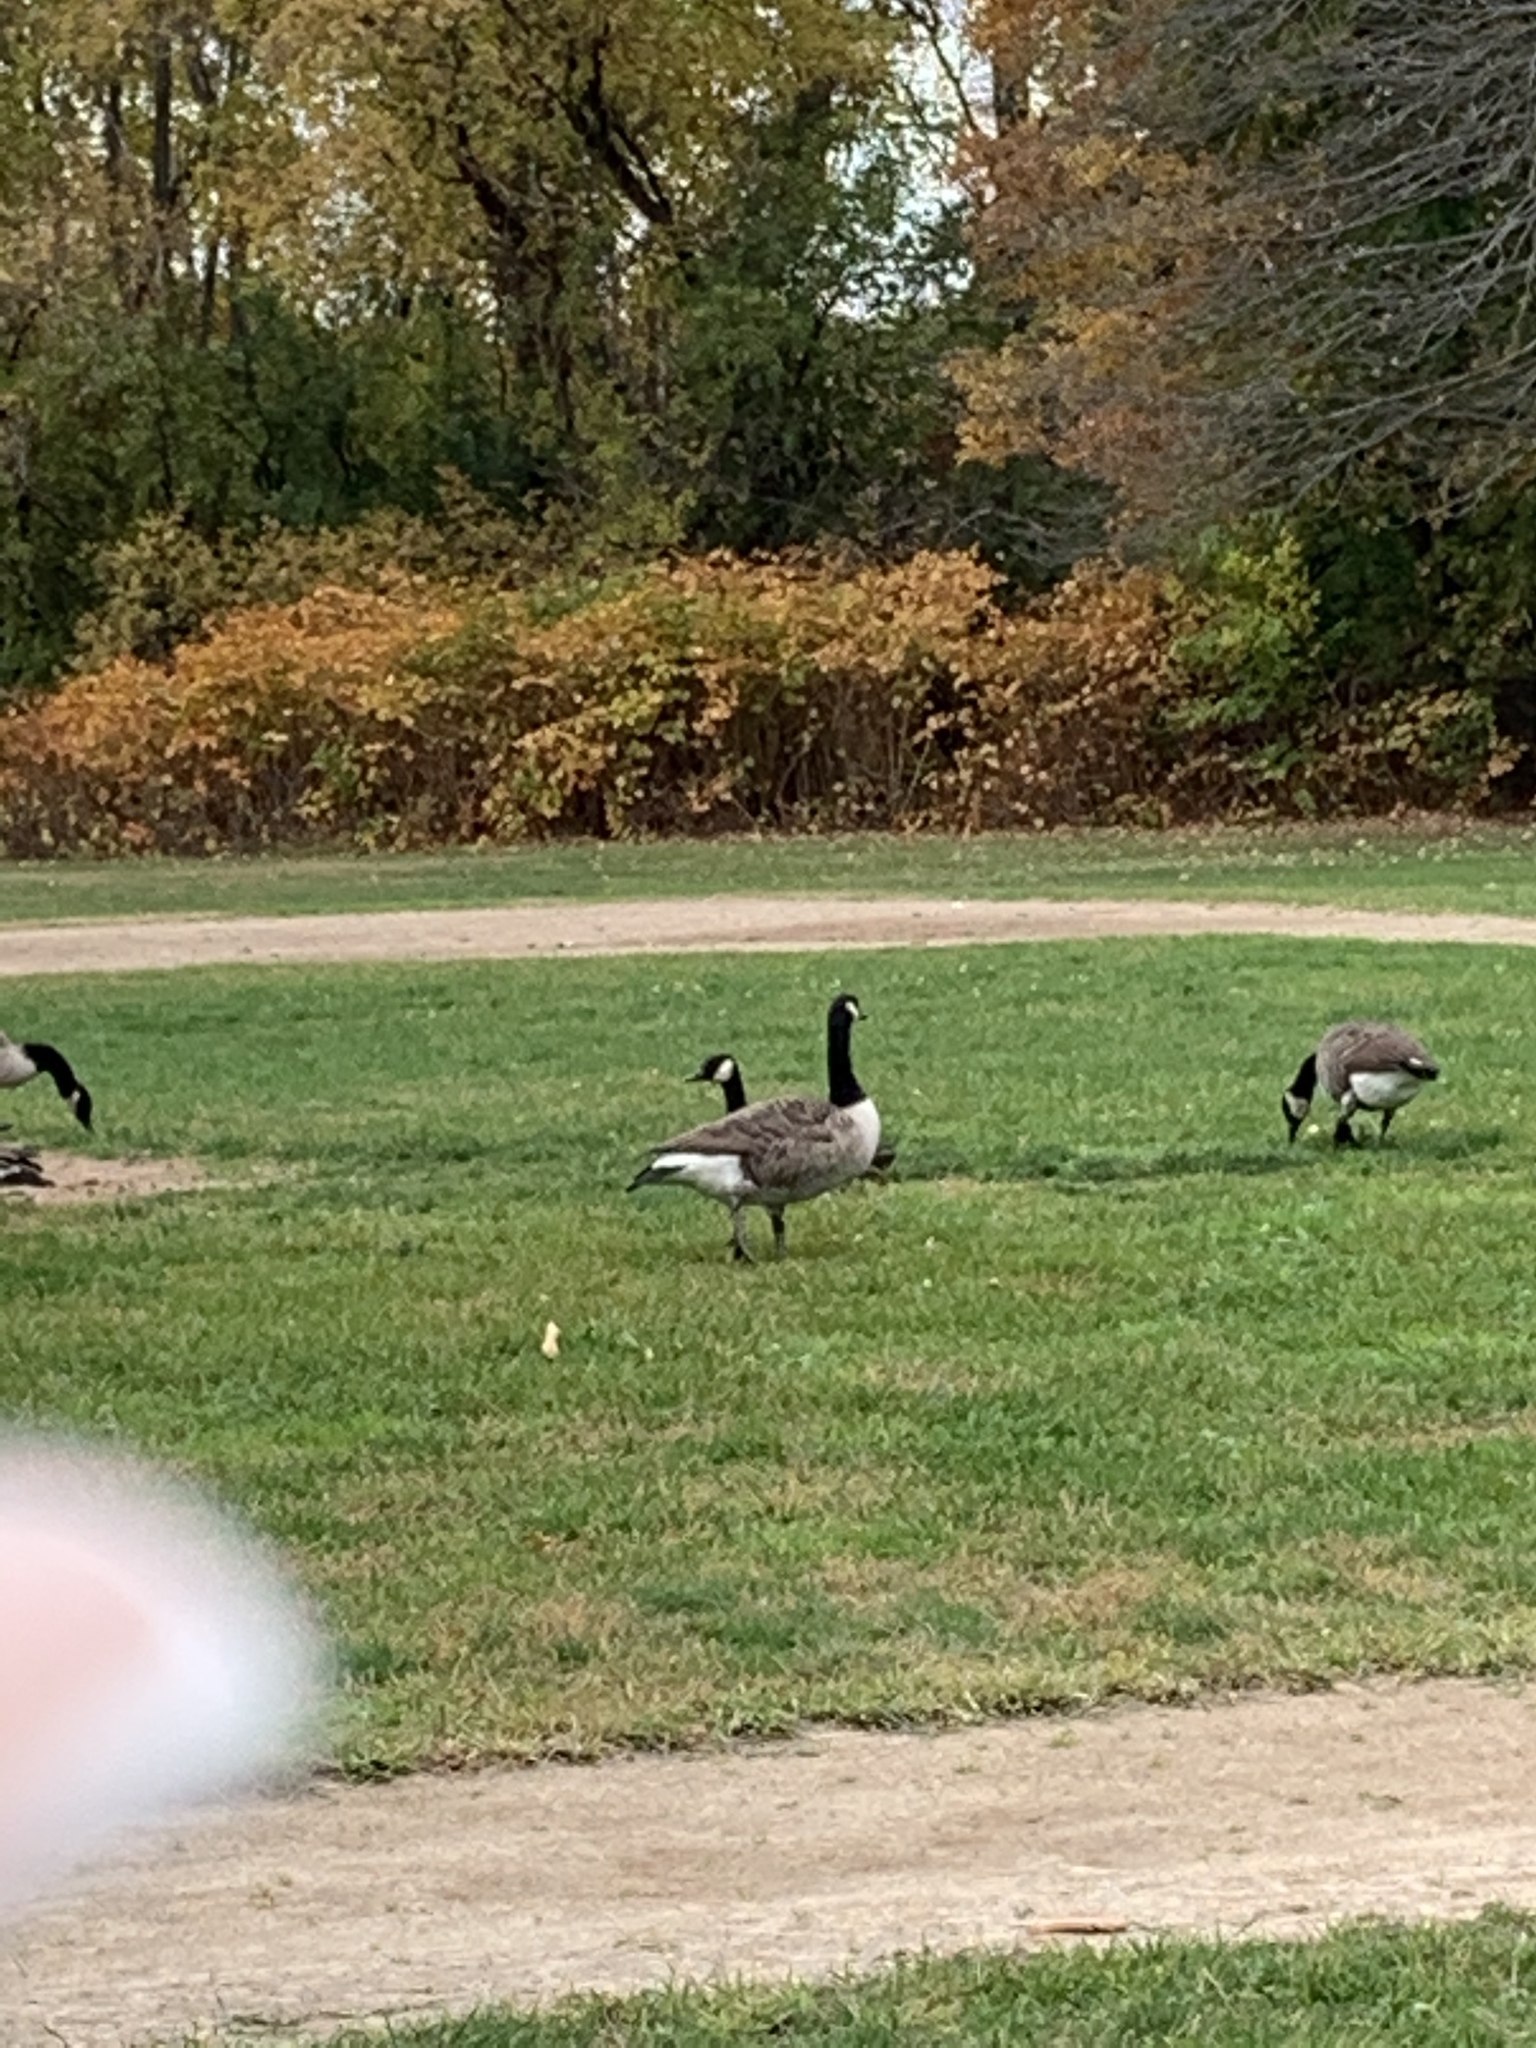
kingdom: Animalia
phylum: Chordata
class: Aves
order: Anseriformes
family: Anatidae
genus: Branta
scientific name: Branta canadensis
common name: Canada goose
